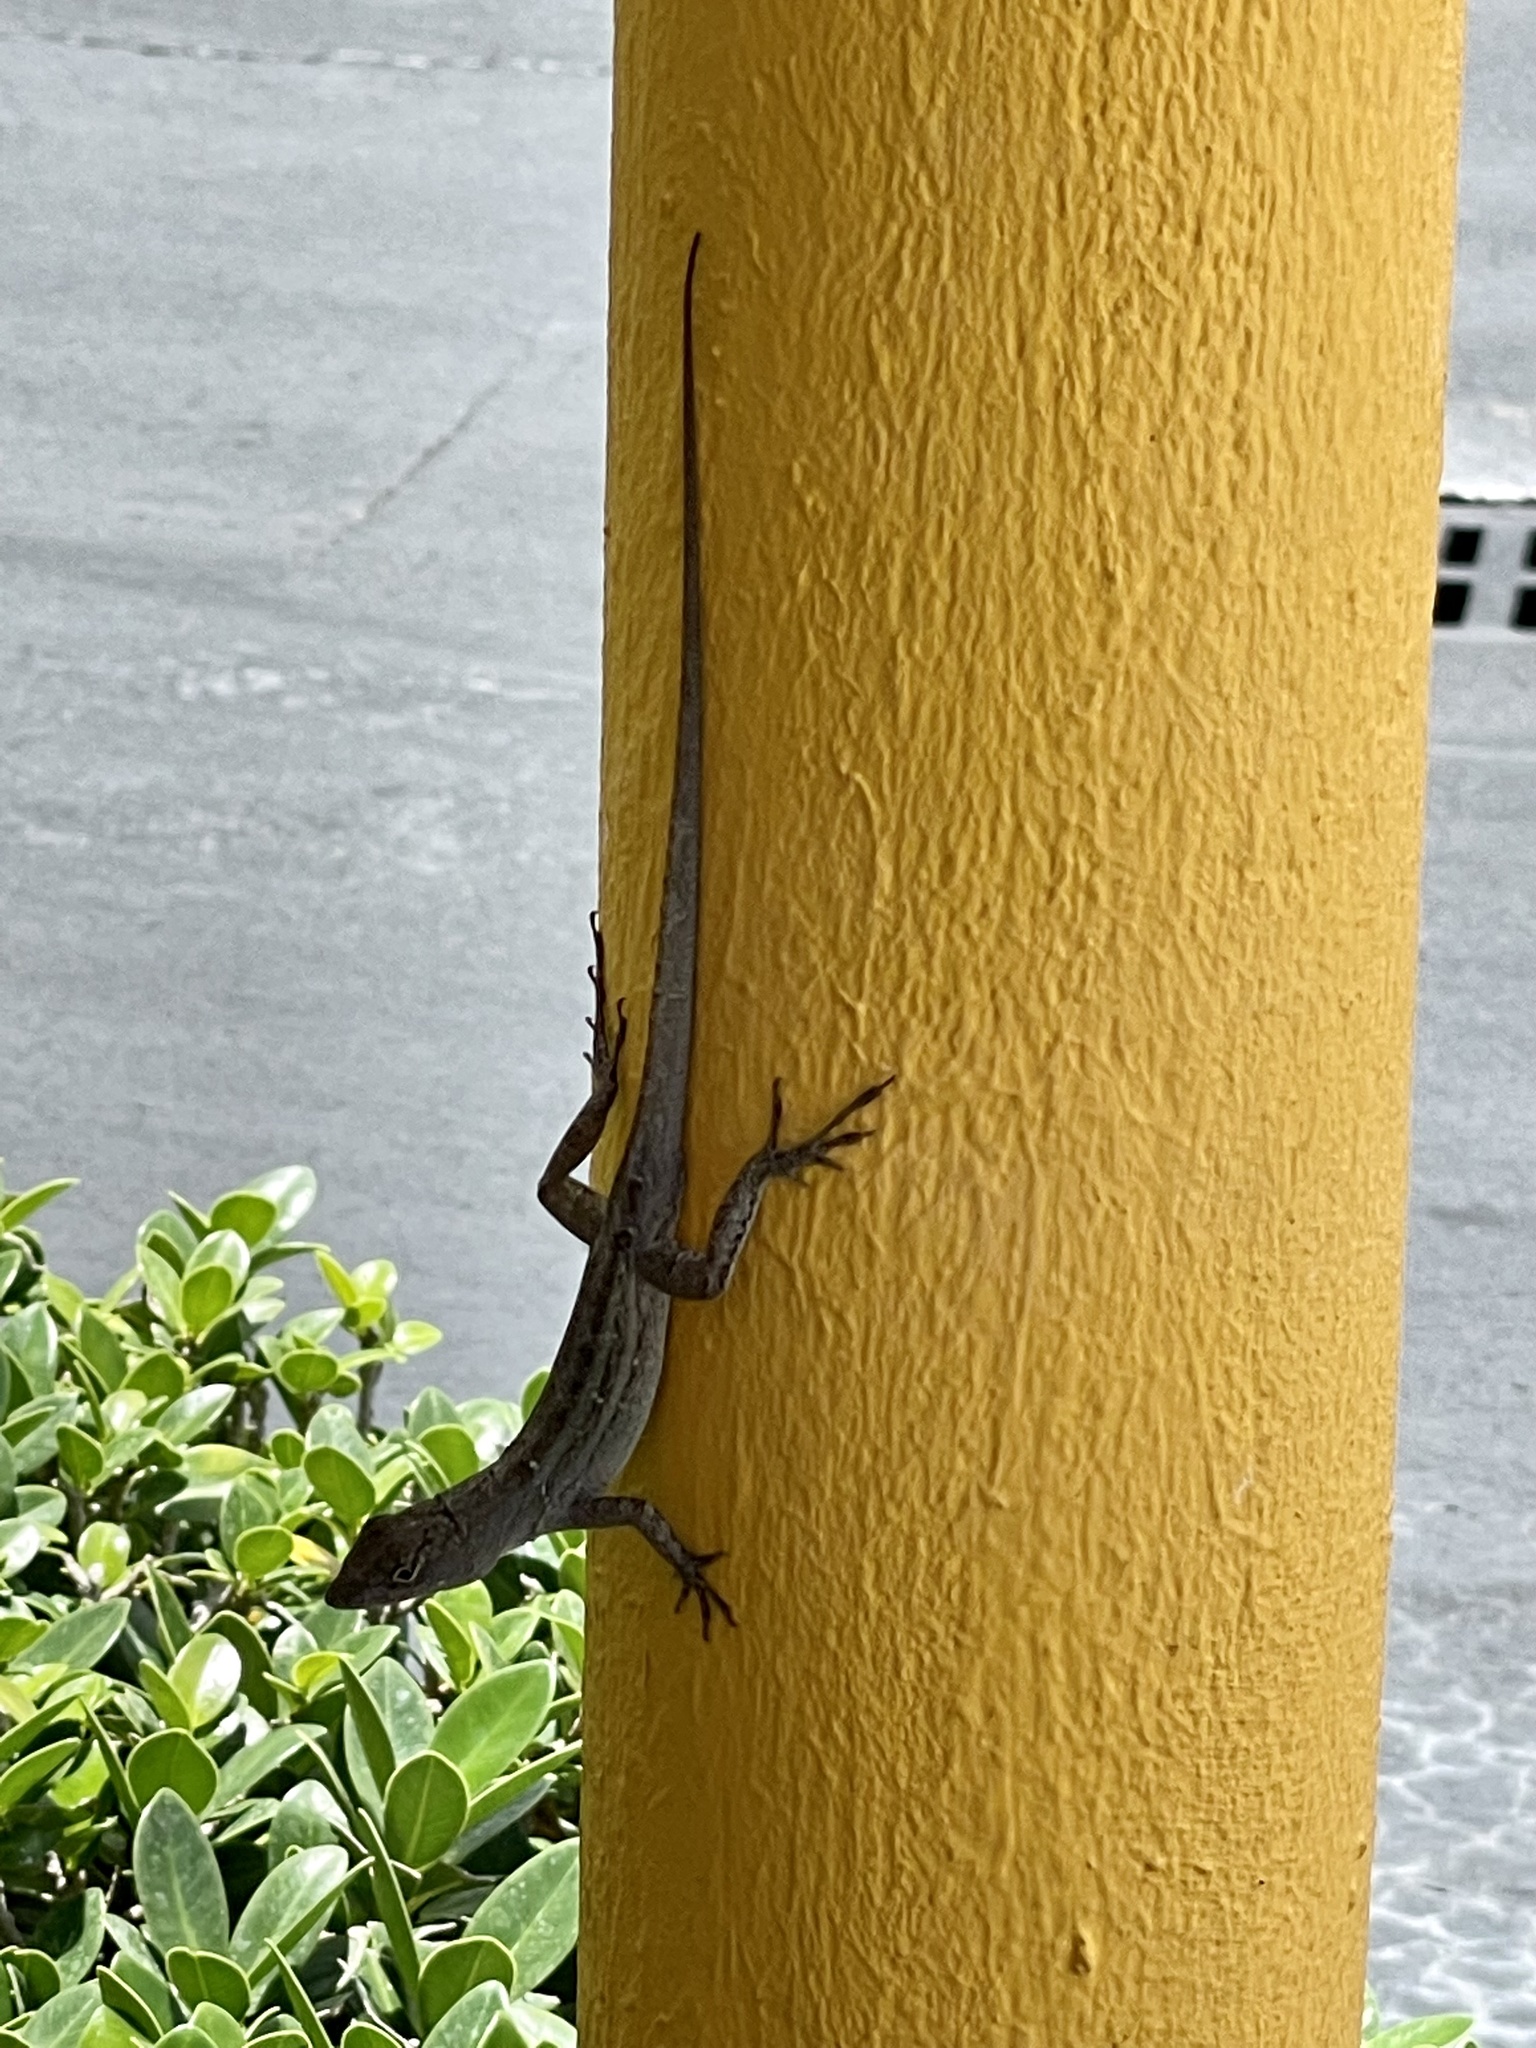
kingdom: Animalia
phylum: Chordata
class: Squamata
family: Dactyloidae
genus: Anolis
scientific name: Anolis sagrei
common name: Brown anole
